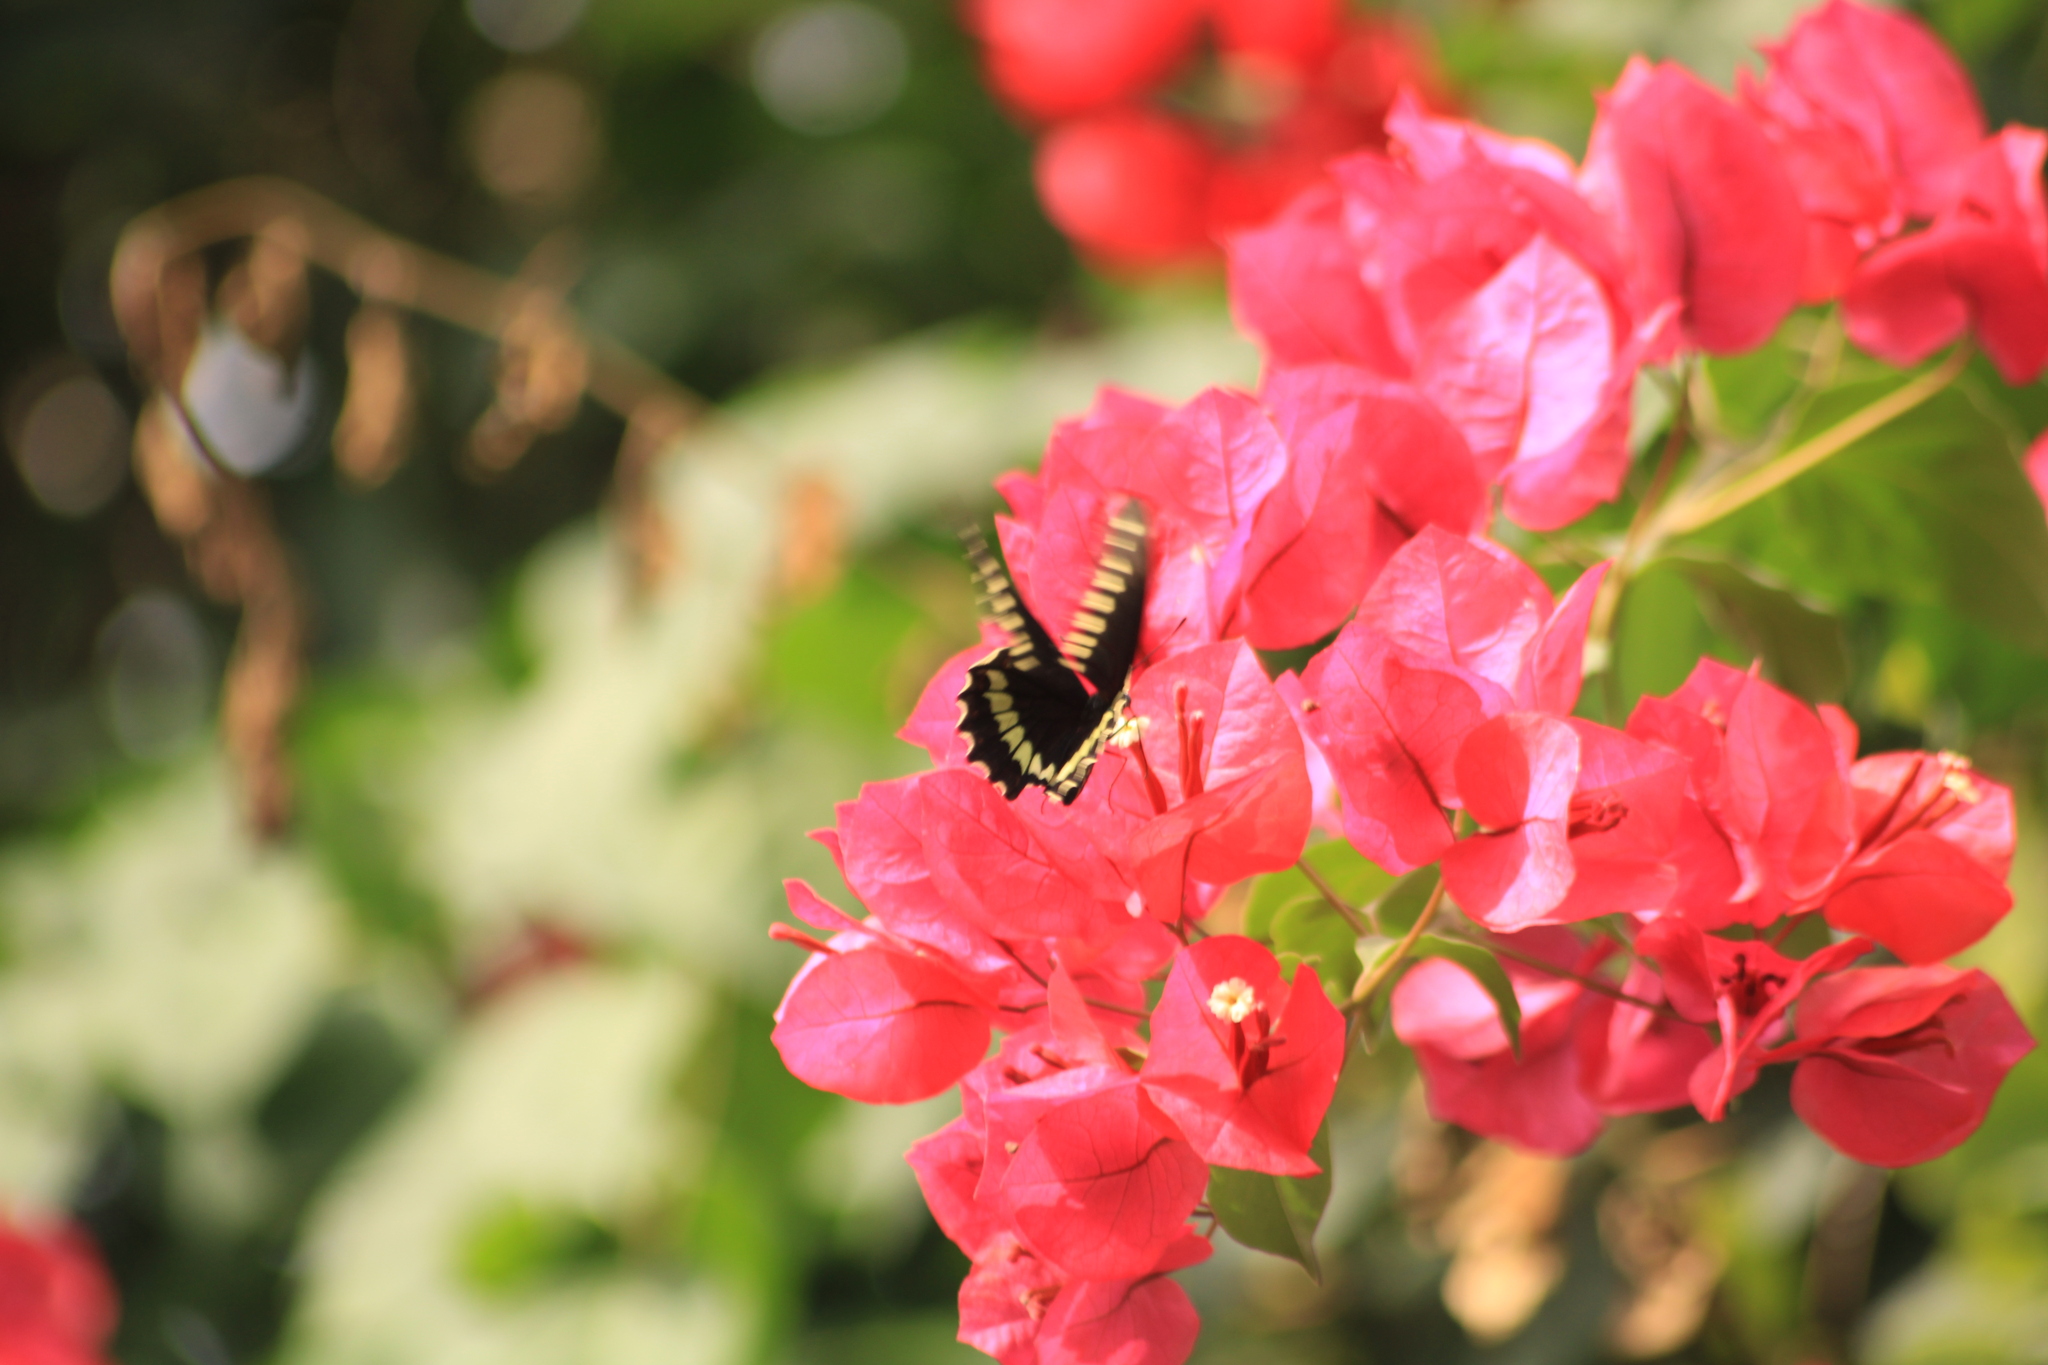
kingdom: Animalia
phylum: Arthropoda
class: Insecta
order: Lepidoptera
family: Papilionidae
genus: Battus
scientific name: Battus polydamas
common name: Polydamas swallowtail
